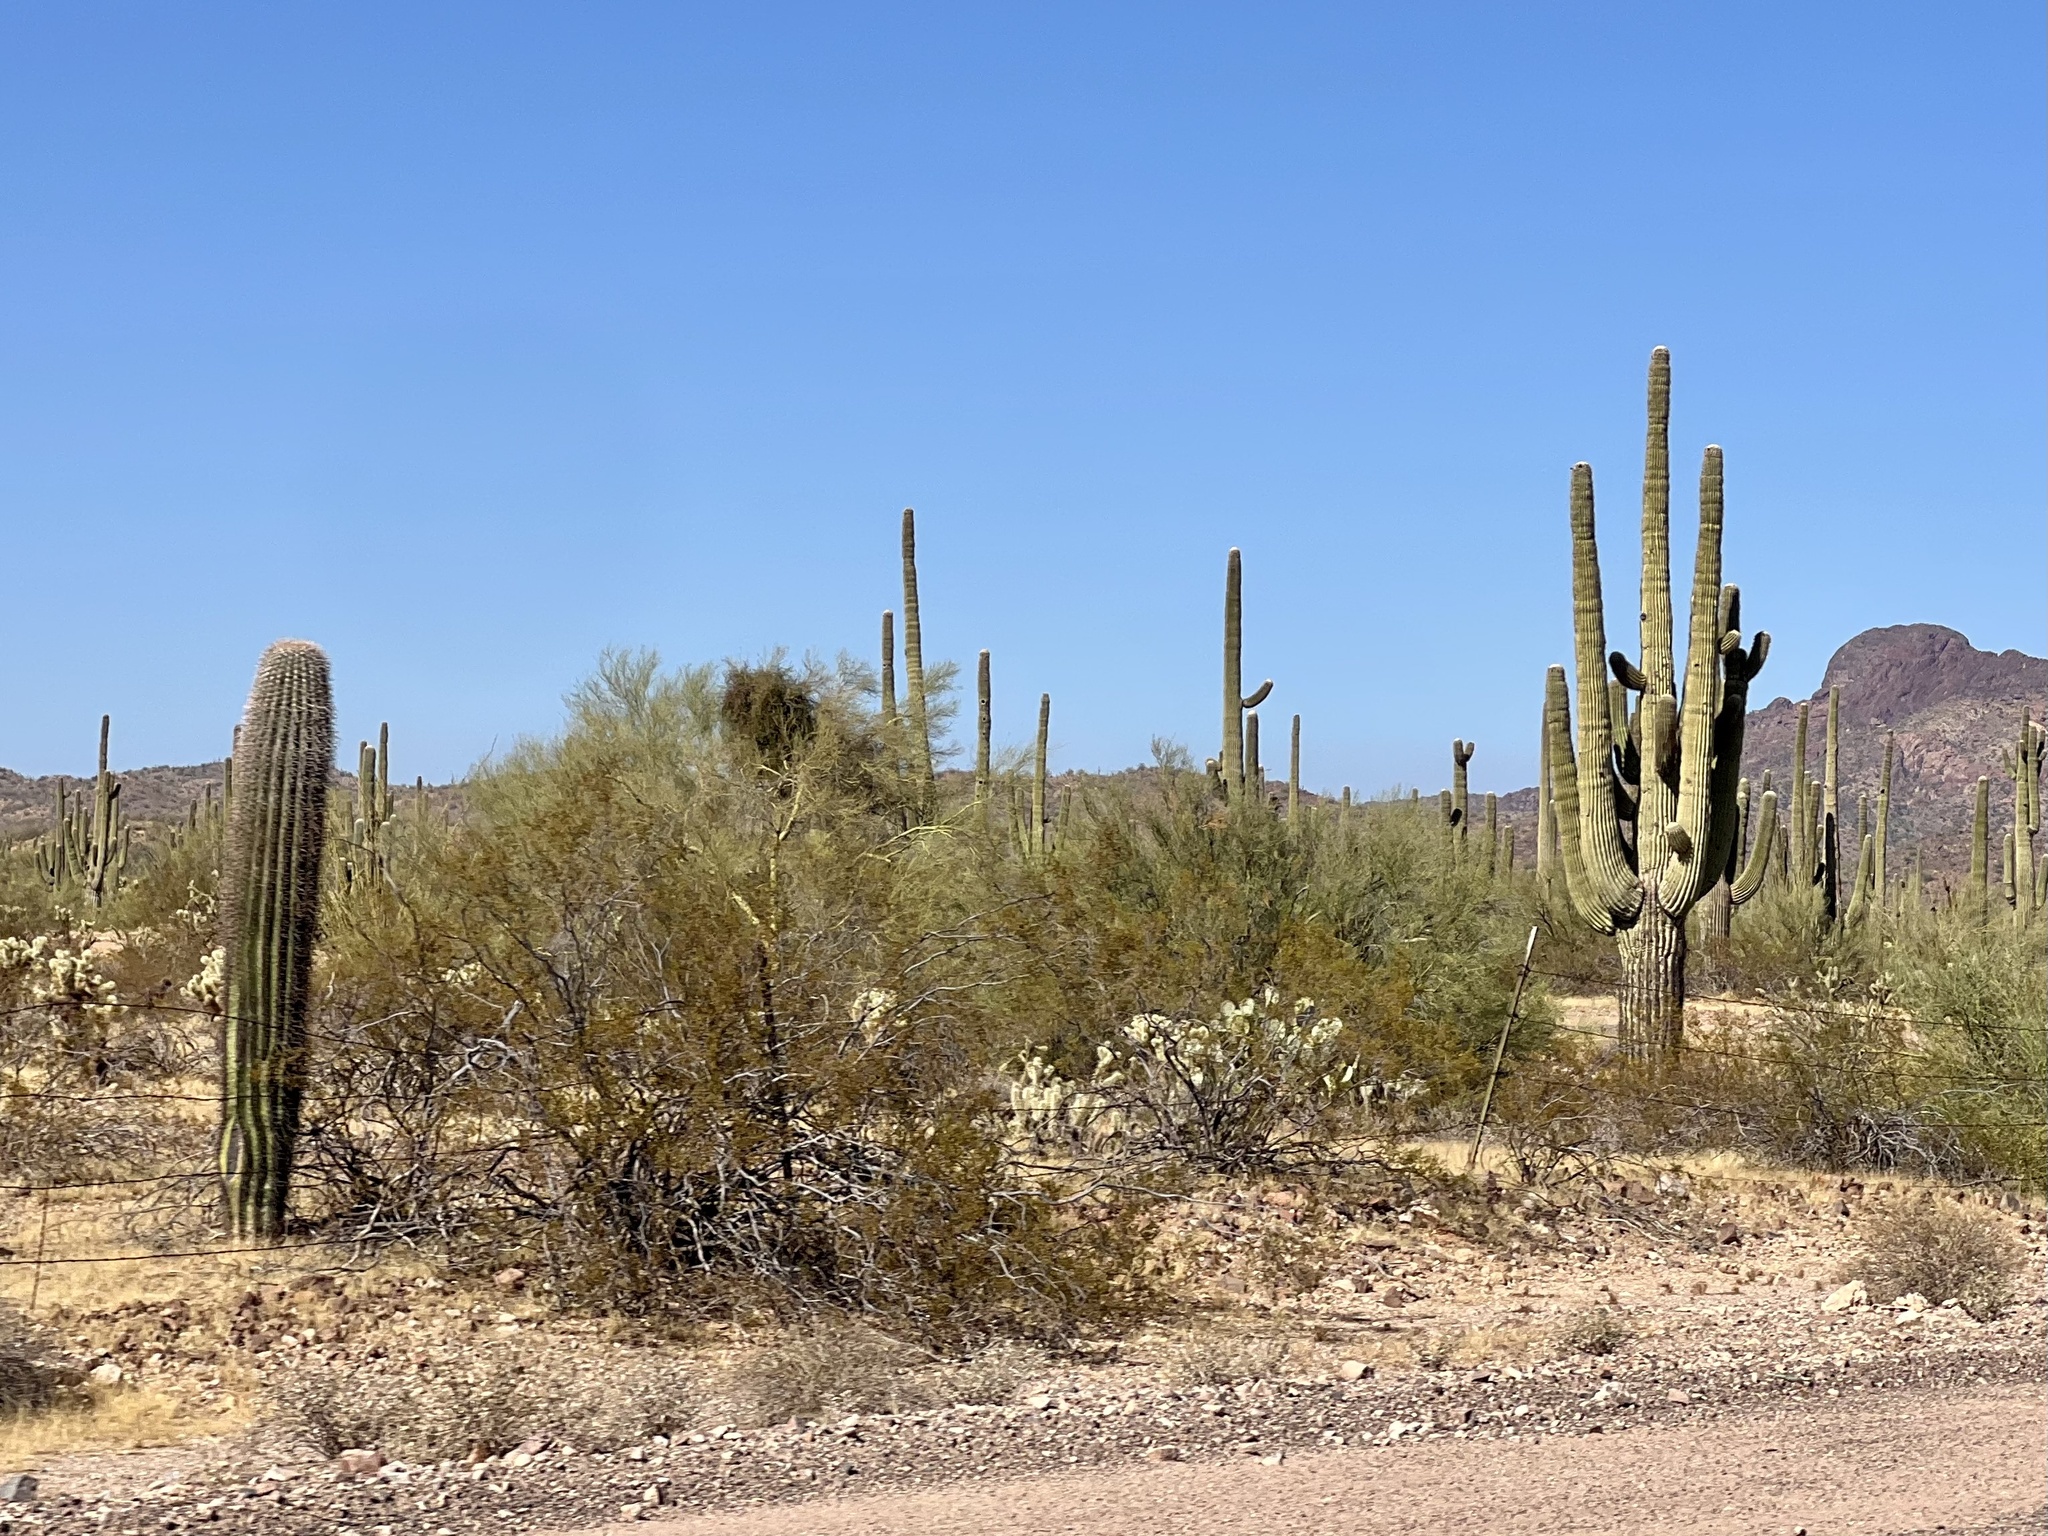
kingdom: Plantae
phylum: Tracheophyta
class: Magnoliopsida
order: Caryophyllales
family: Cactaceae
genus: Carnegiea
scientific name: Carnegiea gigantea
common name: Saguaro
